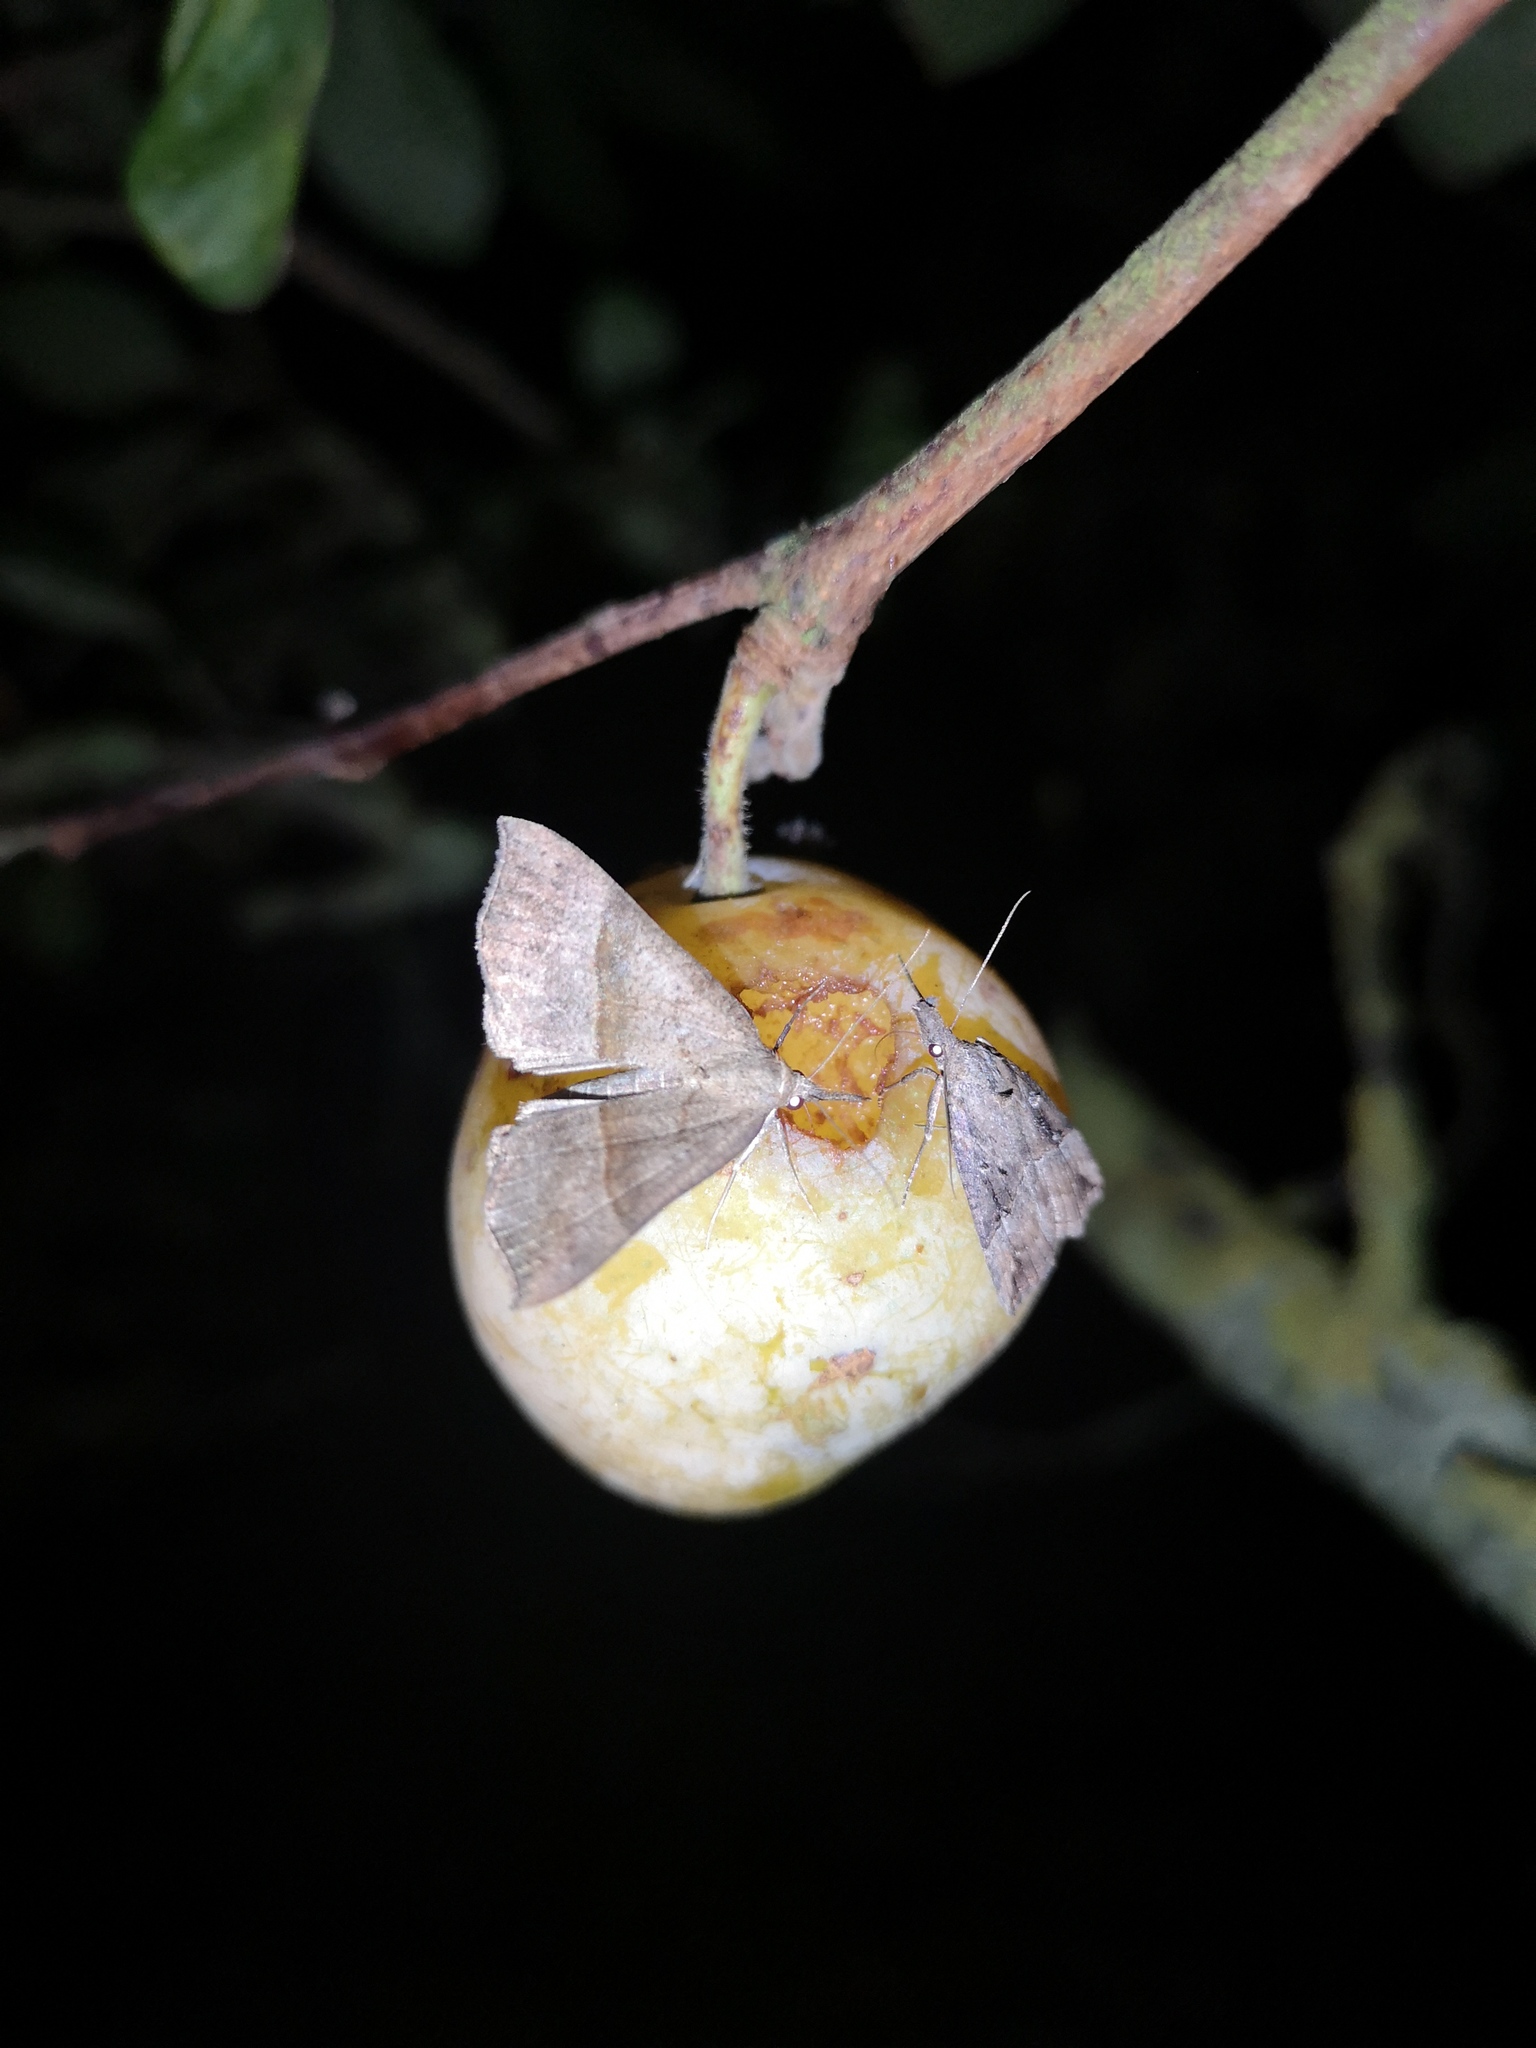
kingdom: Animalia
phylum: Arthropoda
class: Insecta
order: Lepidoptera
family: Erebidae
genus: Hypena
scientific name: Hypena proboscidalis
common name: Snout
